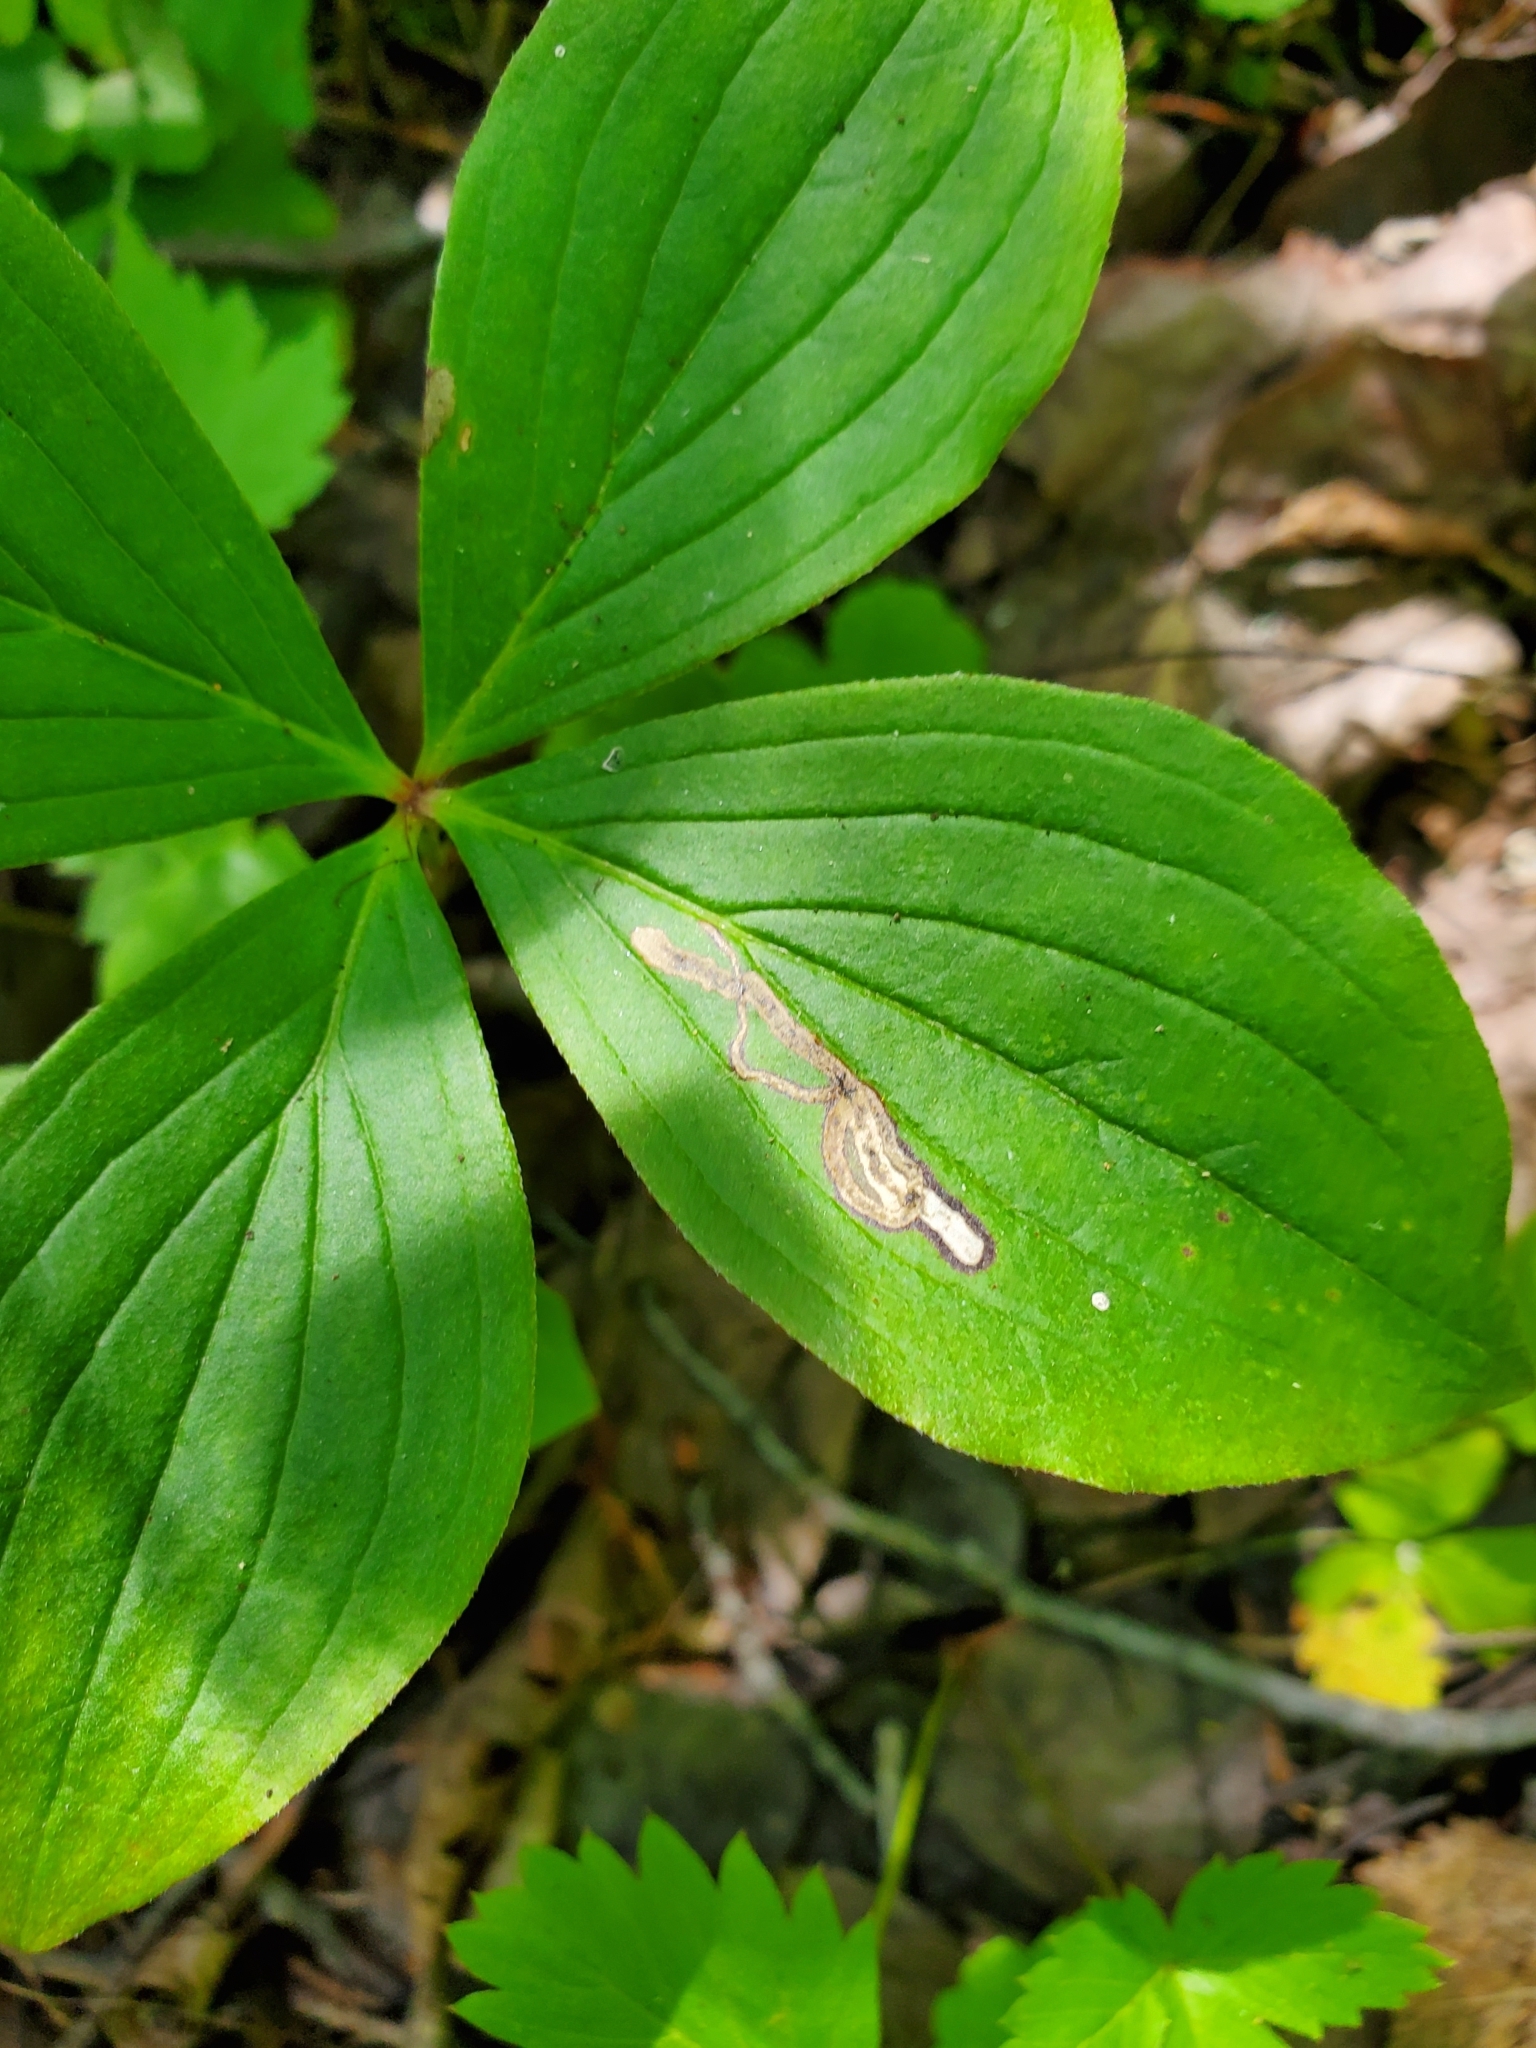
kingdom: Animalia
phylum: Arthropoda
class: Insecta
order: Diptera
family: Agromyzidae
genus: Phytomyza
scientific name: Phytomyza agromyzina
